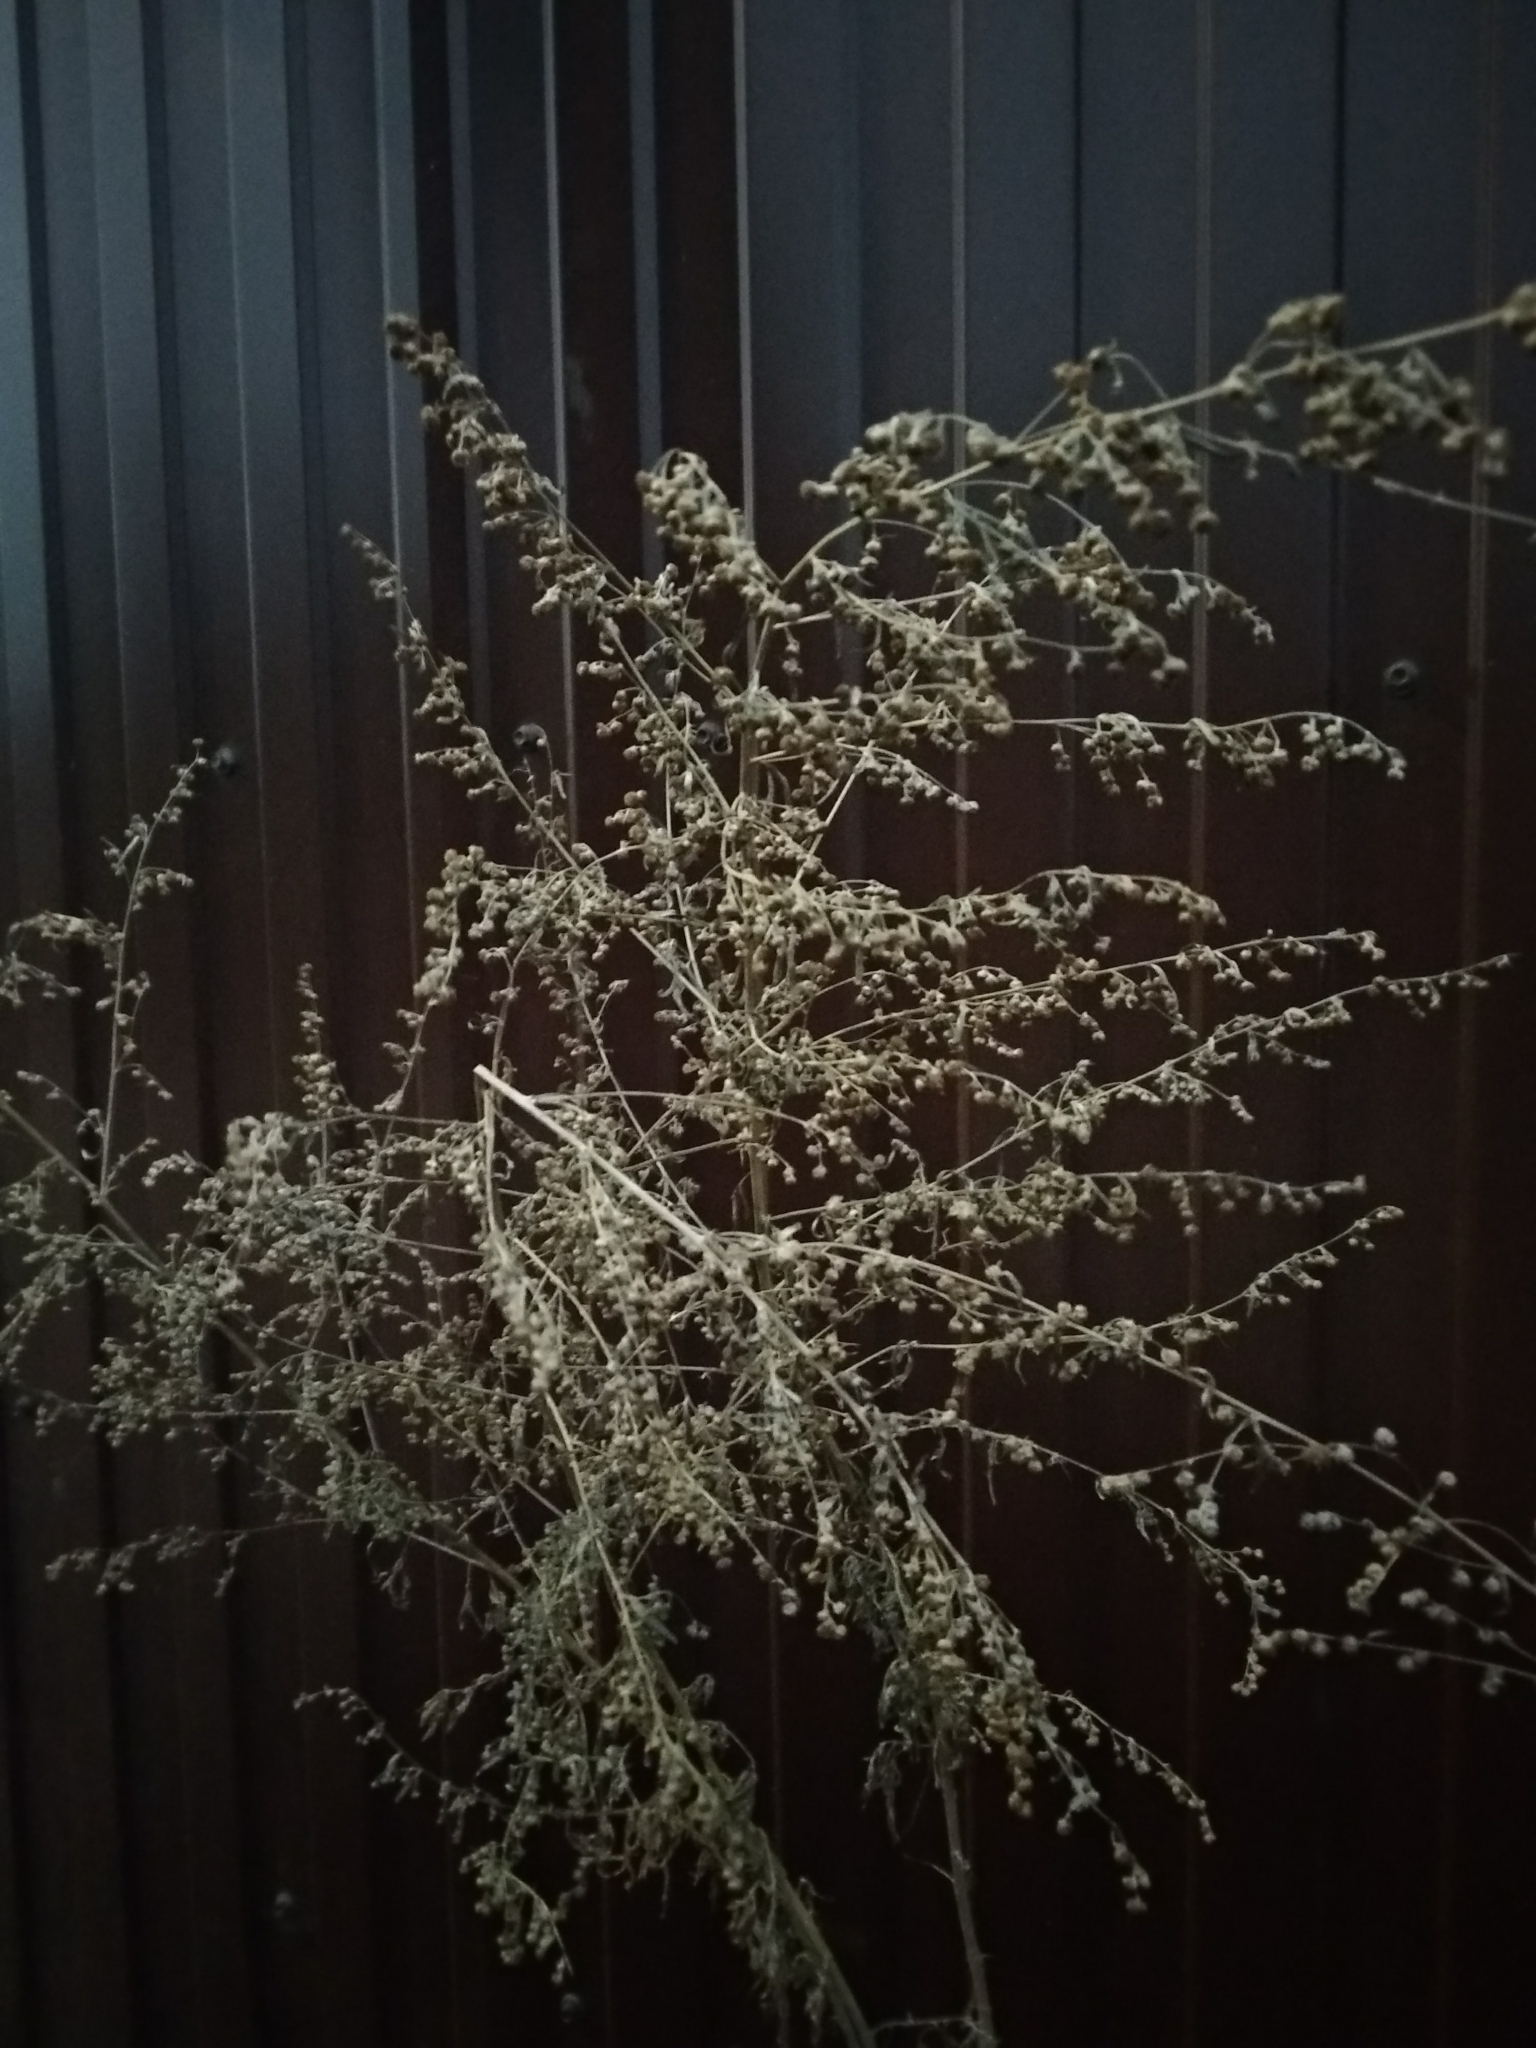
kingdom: Plantae
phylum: Tracheophyta
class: Magnoliopsida
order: Asterales
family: Asteraceae
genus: Artemisia
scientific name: Artemisia absinthium
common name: Wormwood
